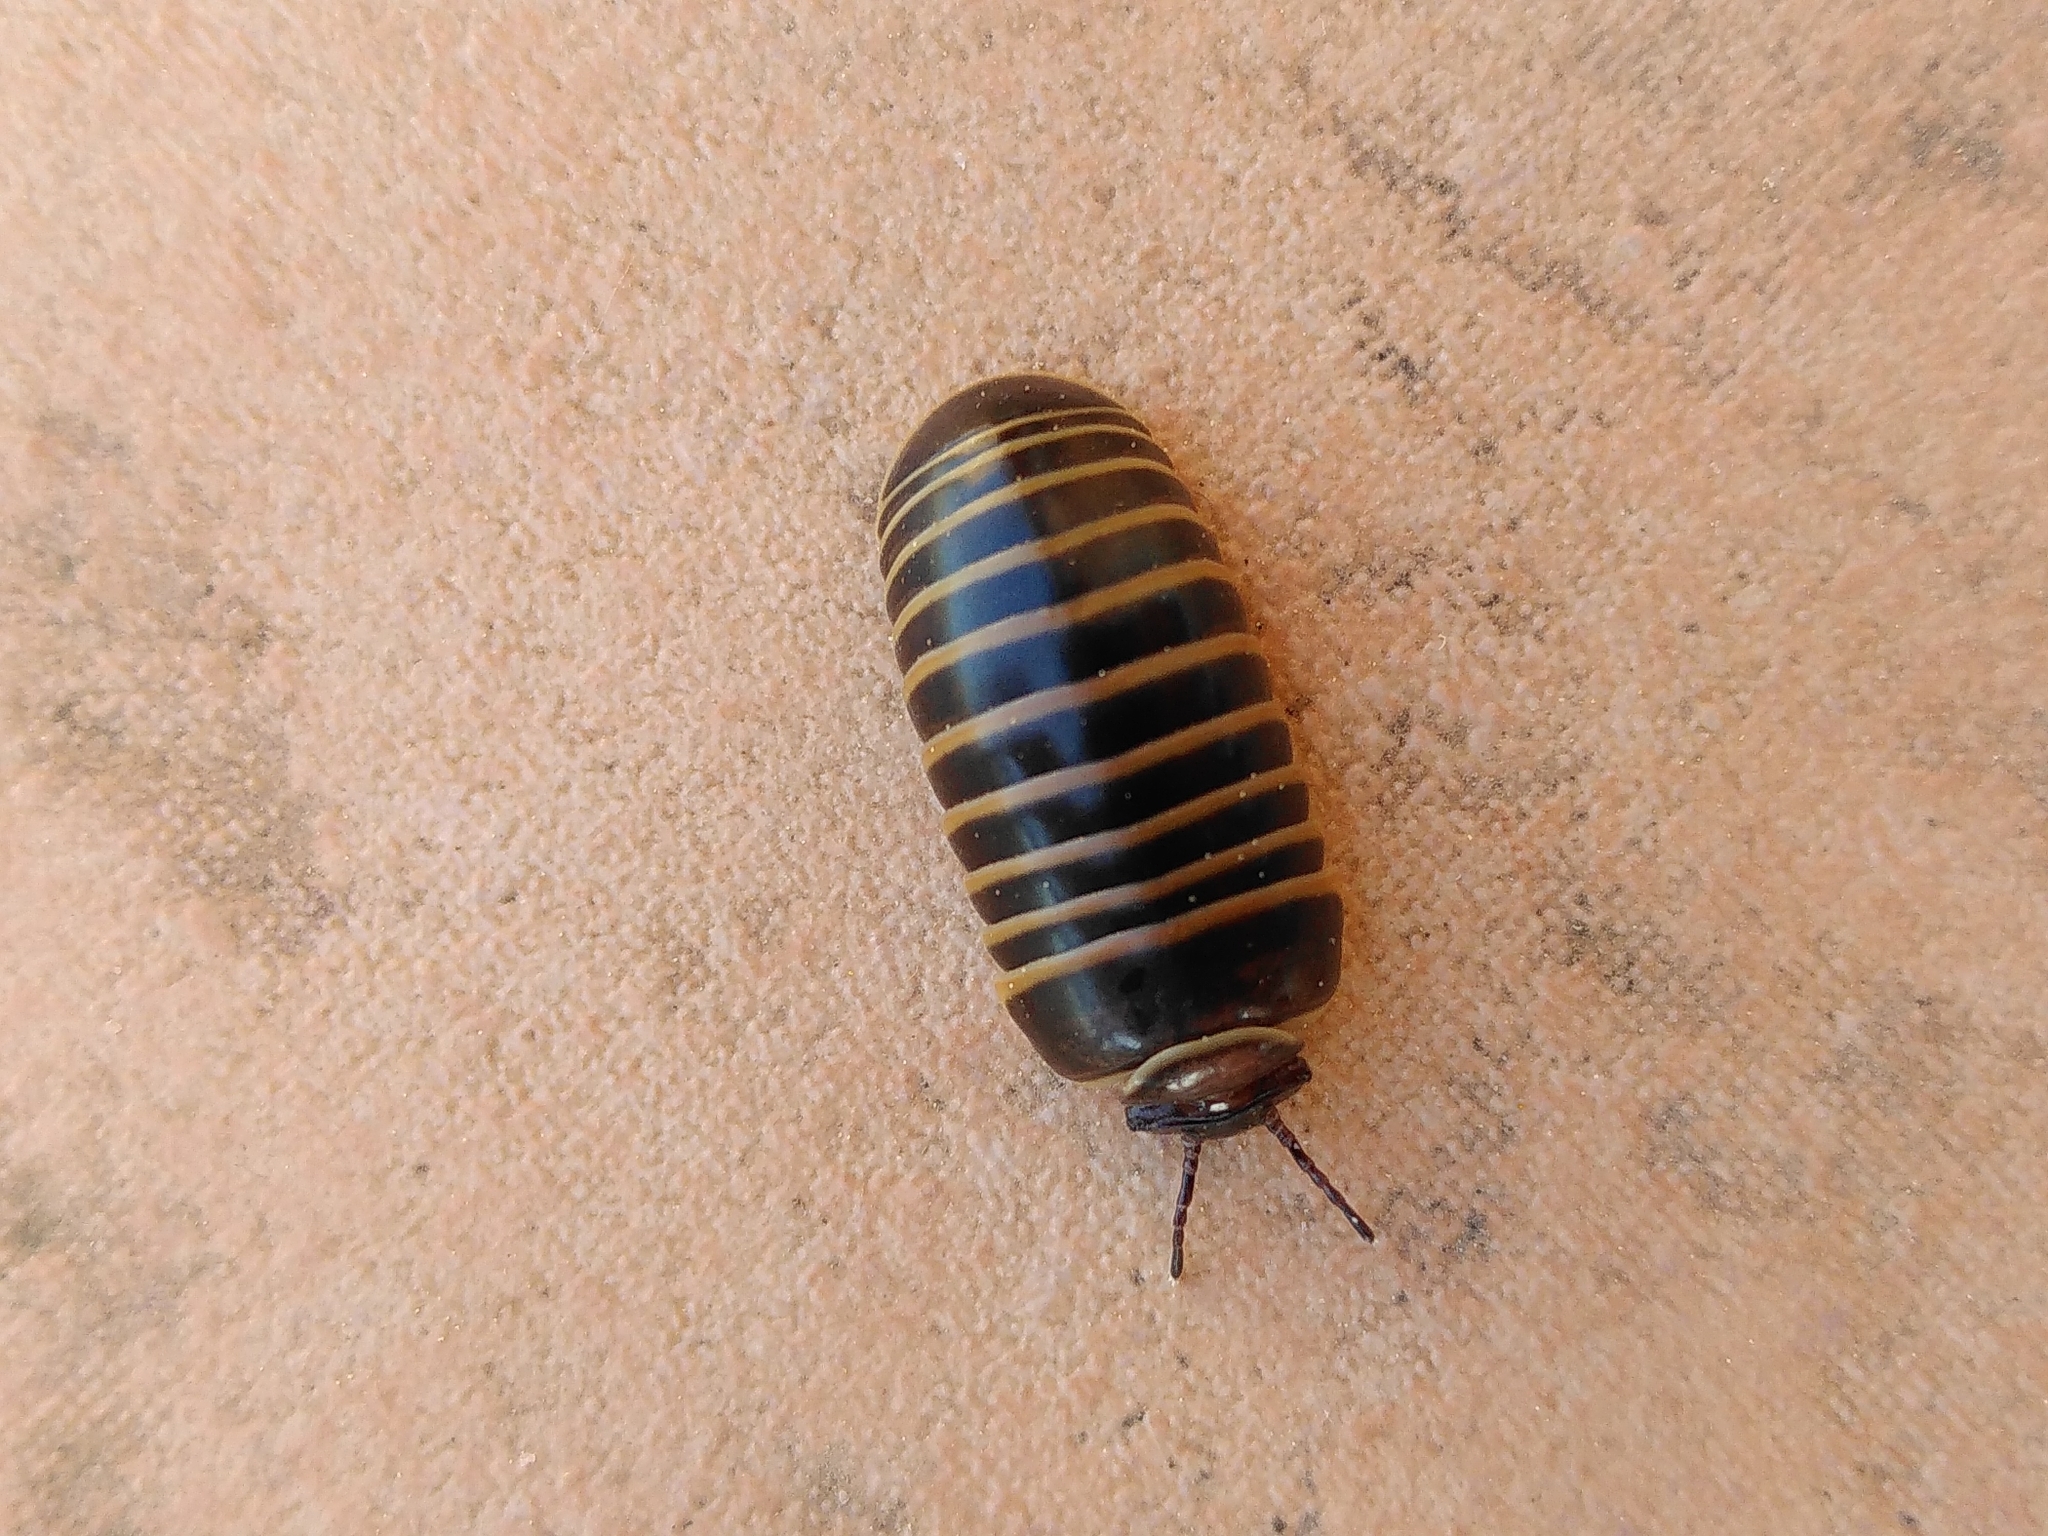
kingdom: Animalia
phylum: Arthropoda
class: Diplopoda
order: Glomerida
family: Glomeridae
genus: Glomeris
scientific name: Glomeris marginata
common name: Bordered pill millipede
